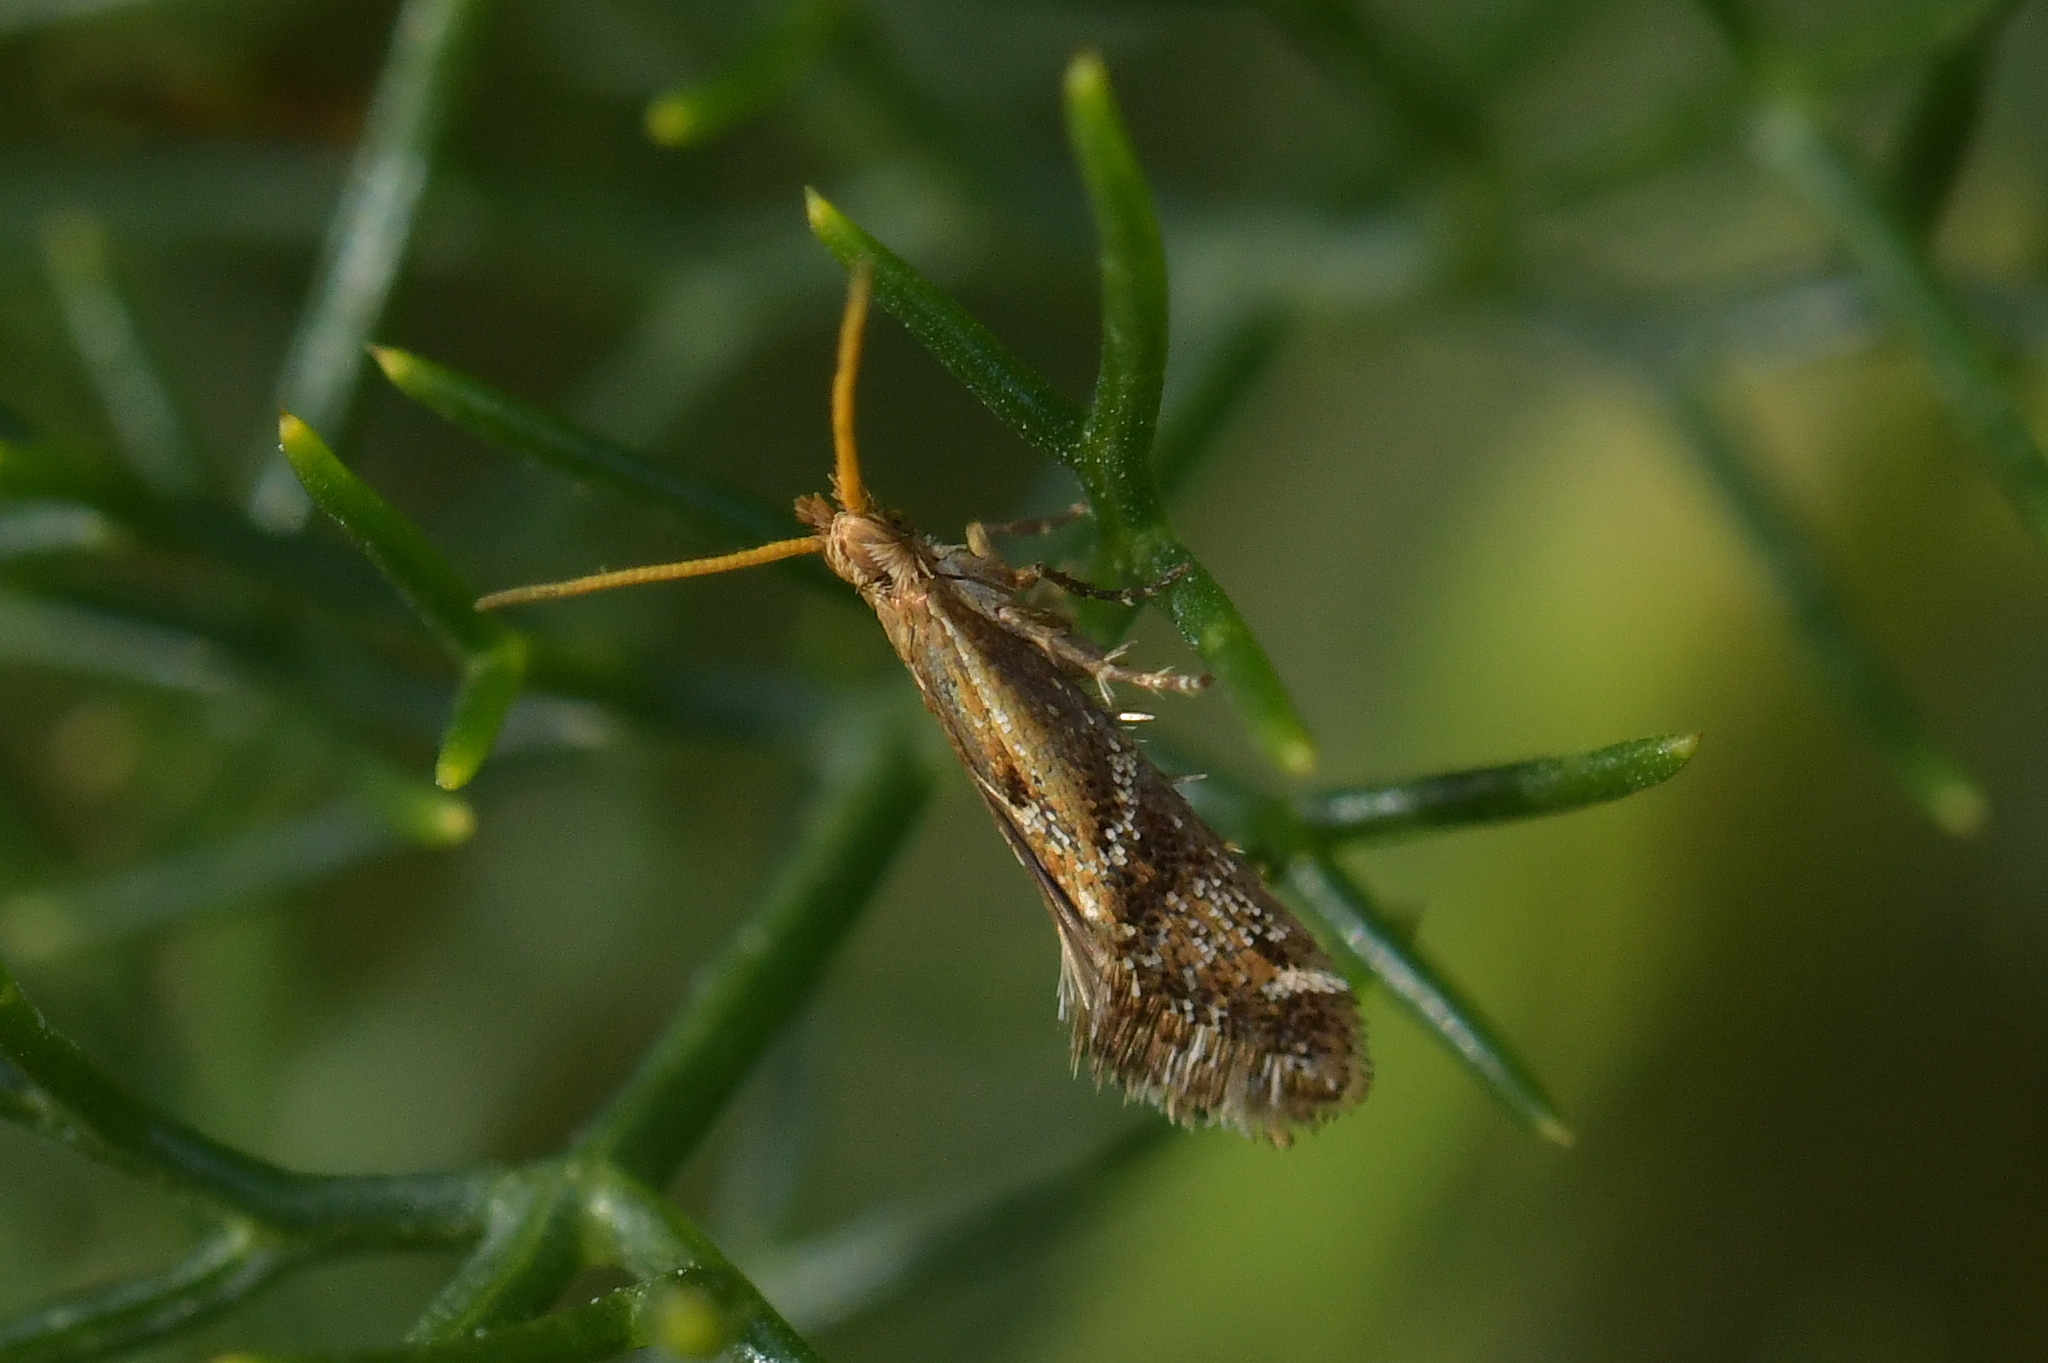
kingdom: Animalia
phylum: Arthropoda
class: Insecta
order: Lepidoptera
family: Mnesarchaeidae
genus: Mnesarchaea
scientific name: Mnesarchaea paracosma
